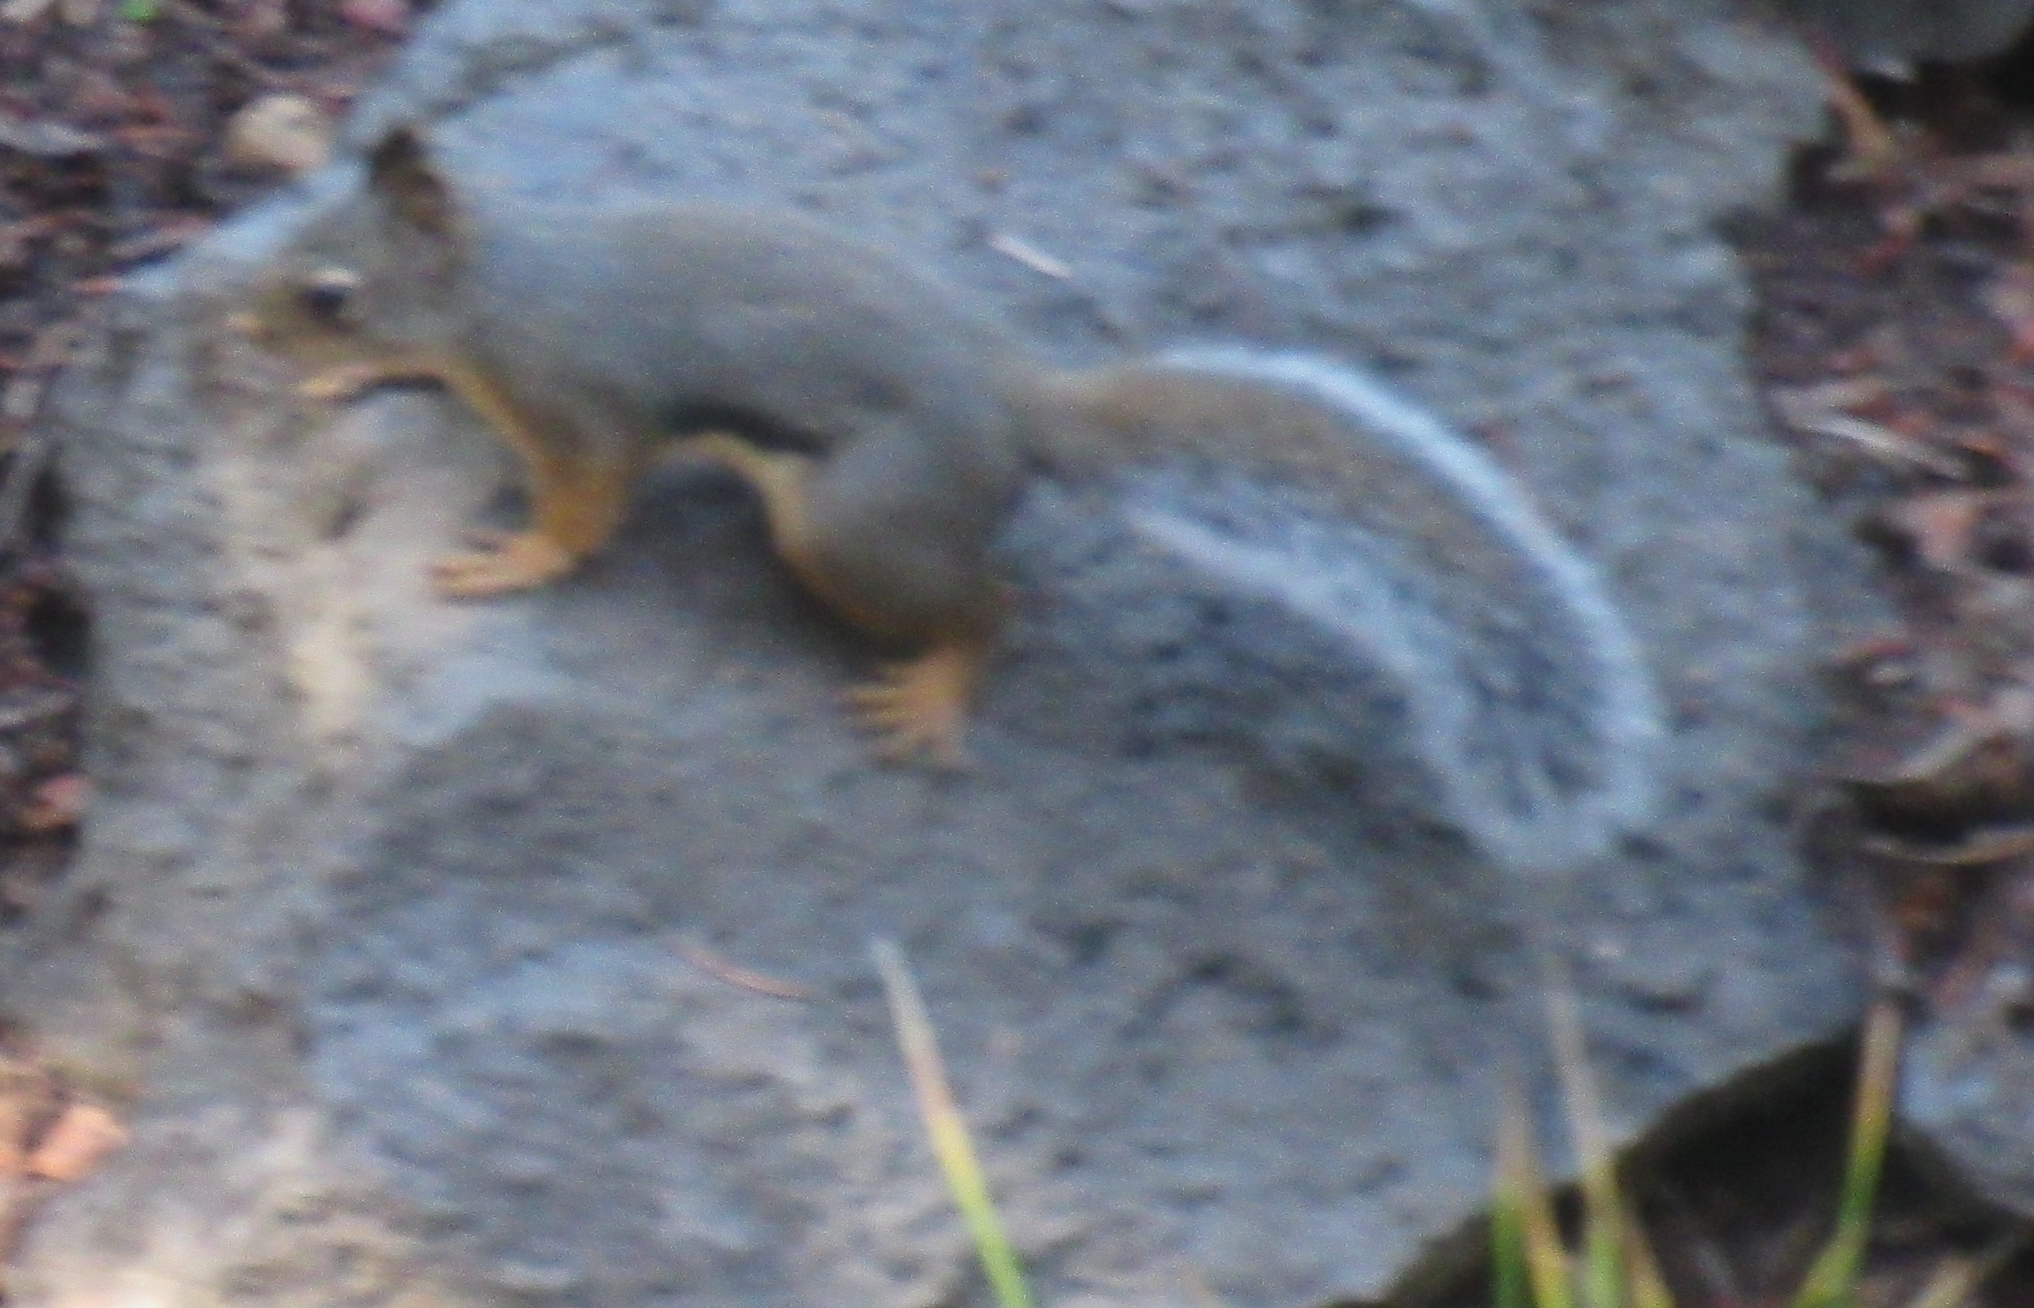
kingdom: Animalia
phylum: Chordata
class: Mammalia
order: Rodentia
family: Sciuridae
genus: Tamiasciurus
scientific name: Tamiasciurus douglasii
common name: Douglas's squirrel
